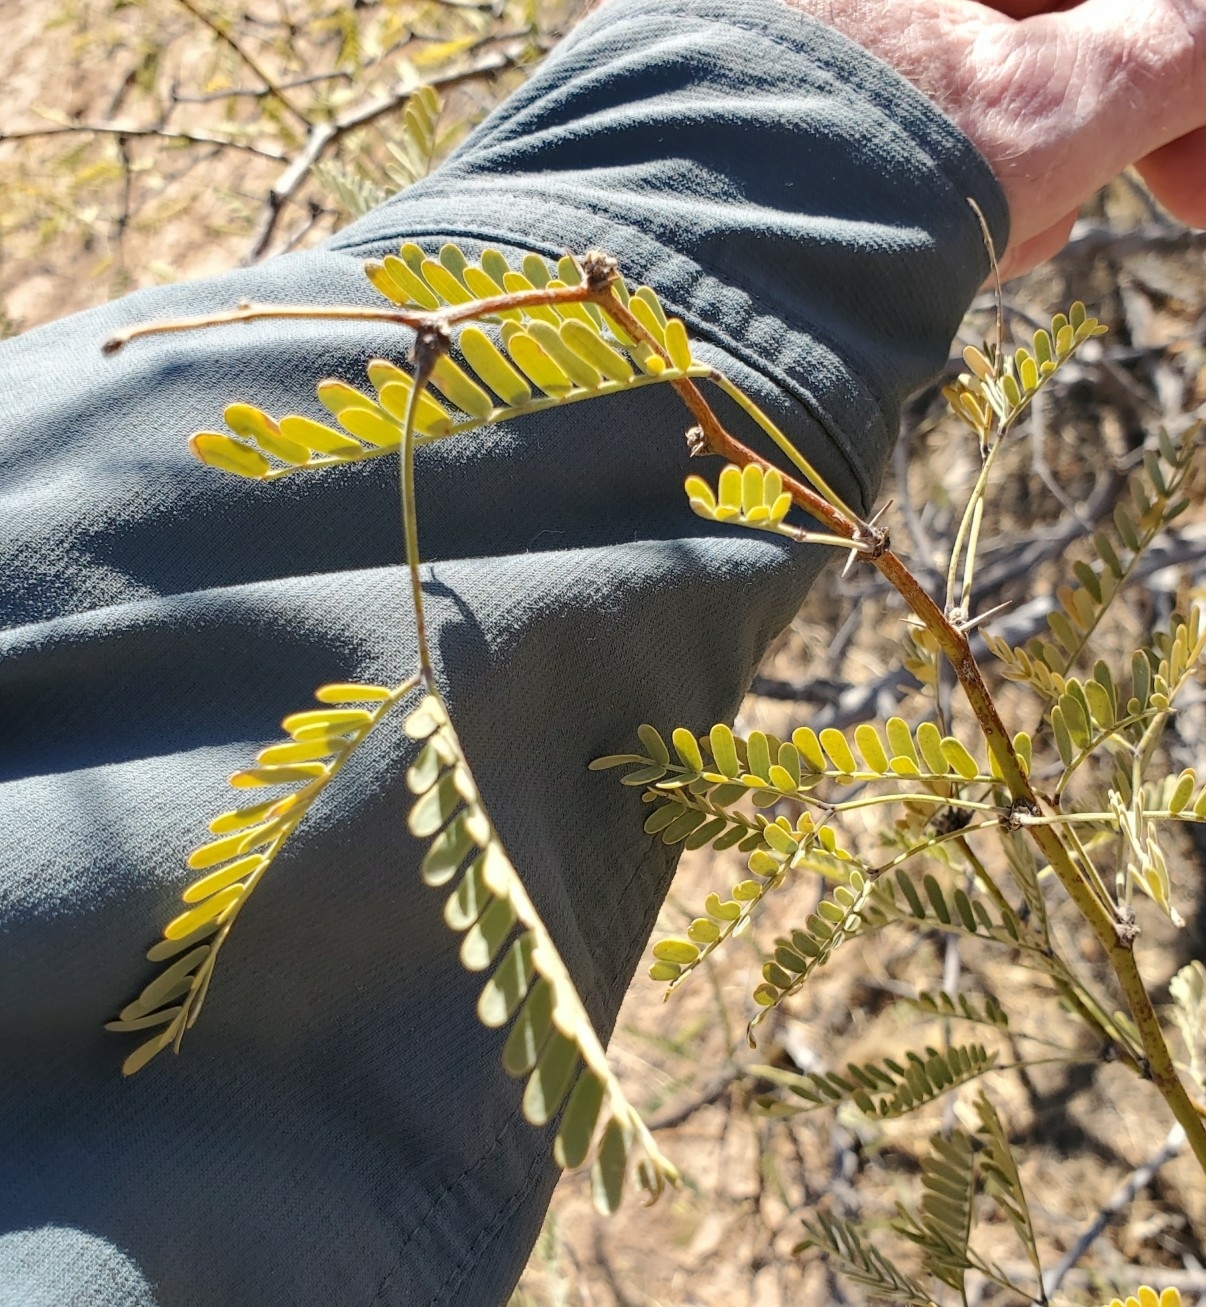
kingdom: Plantae
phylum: Tracheophyta
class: Magnoliopsida
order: Fabales
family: Fabaceae
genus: Prosopis
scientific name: Prosopis velutina
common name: Velvet mesquite
